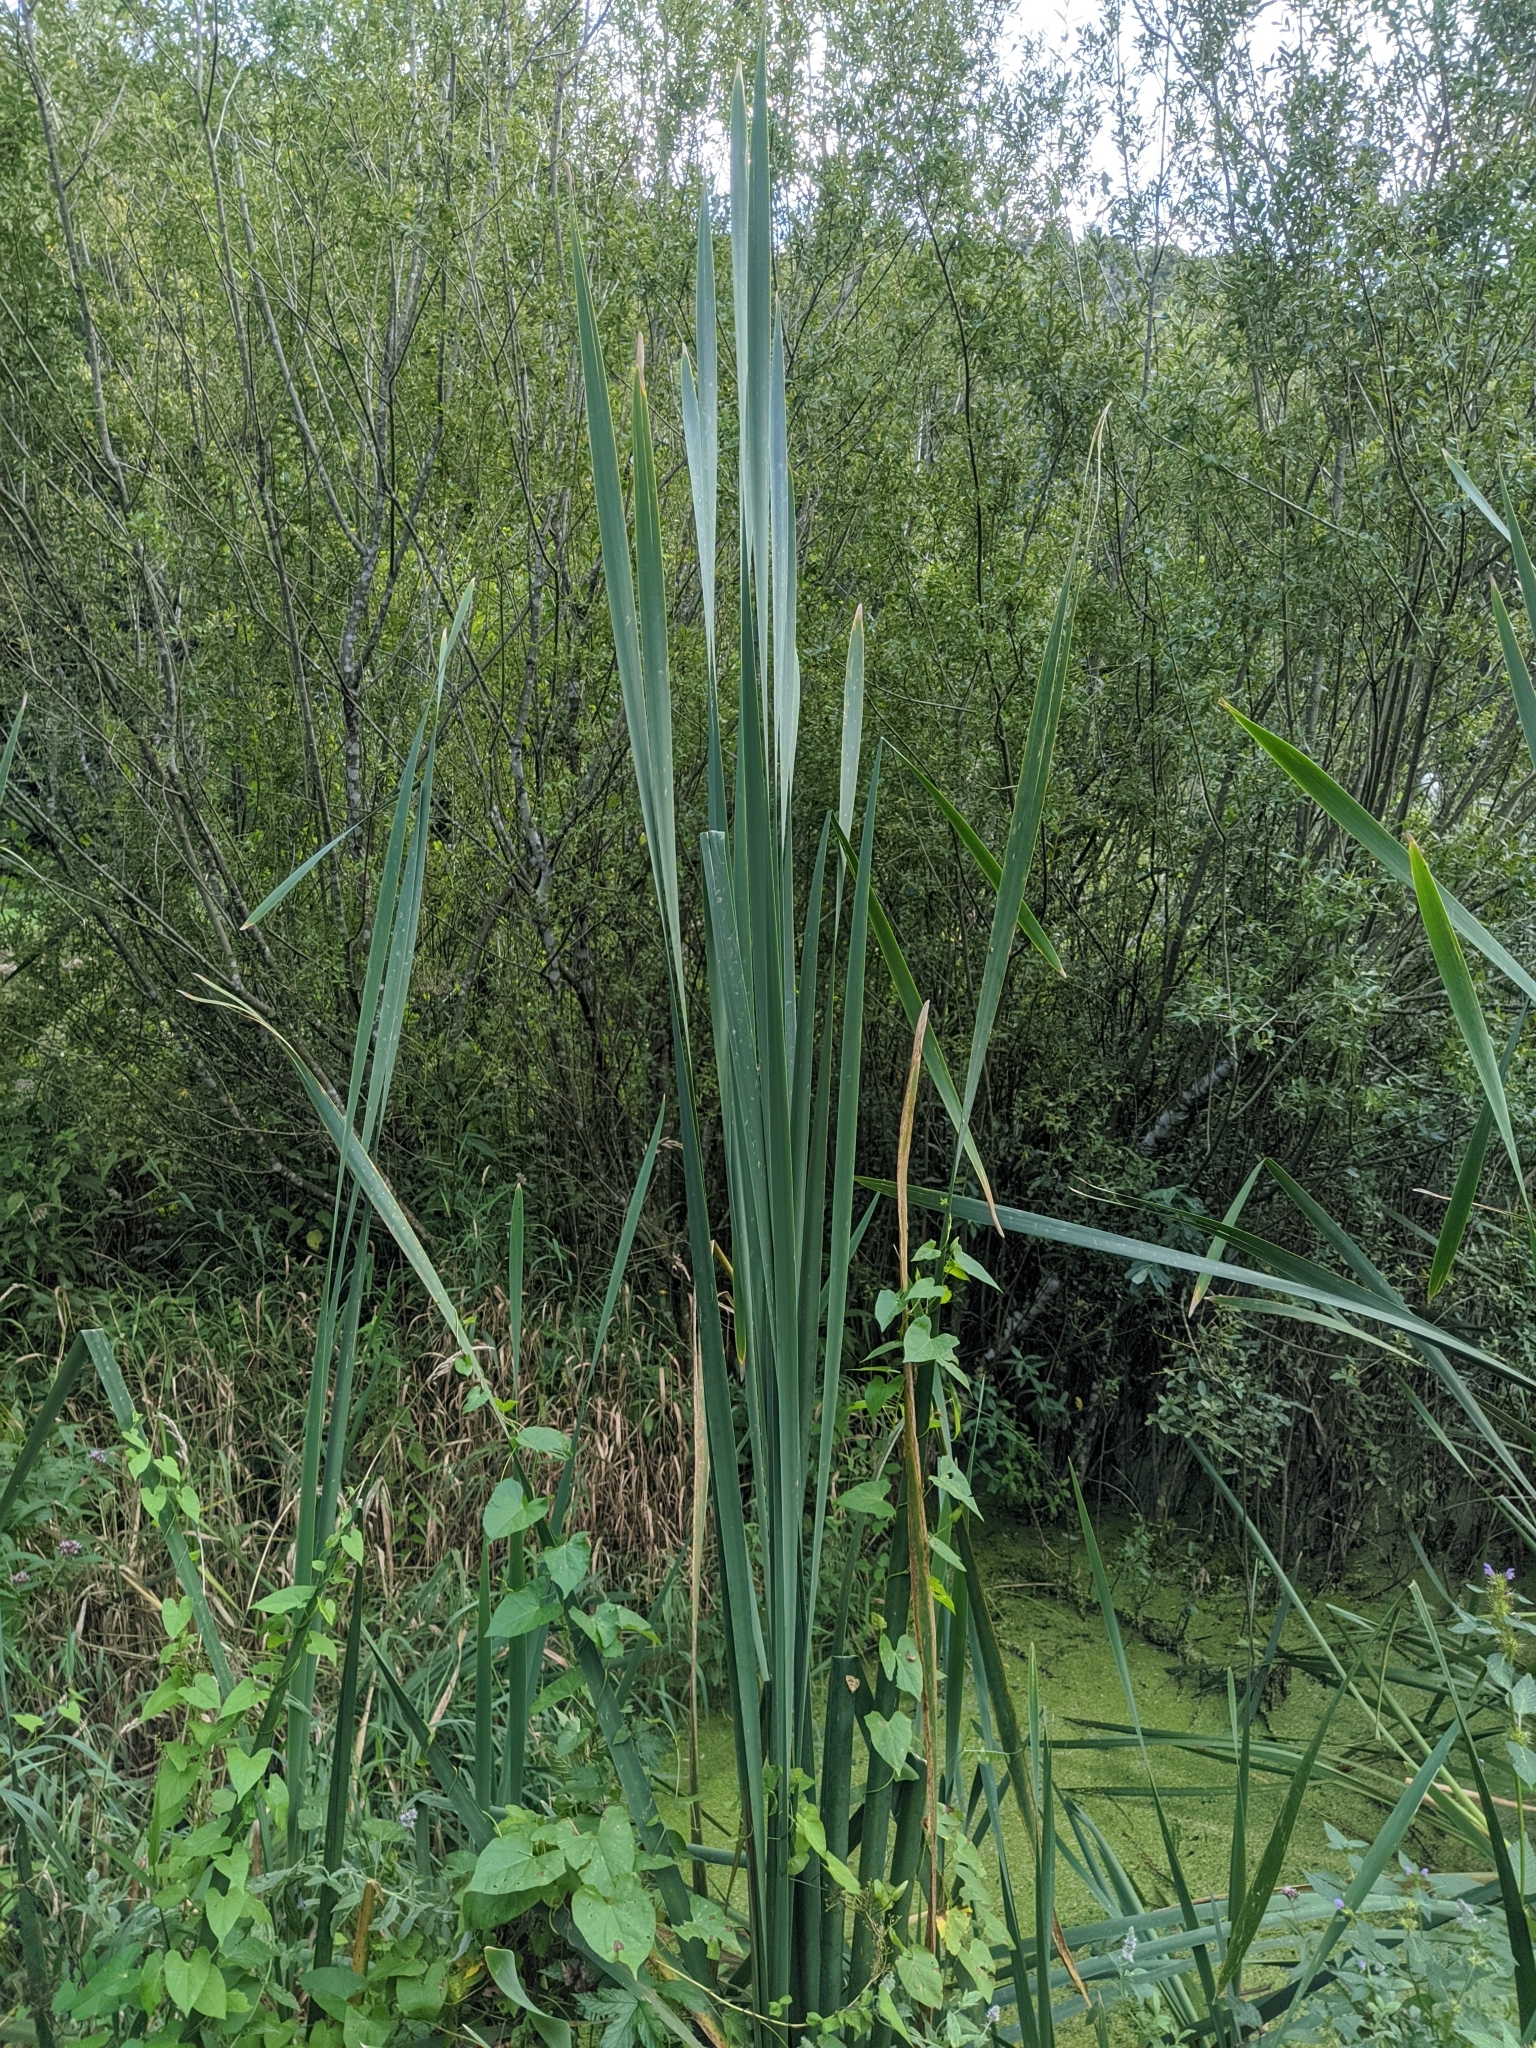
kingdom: Plantae
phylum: Tracheophyta
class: Liliopsida
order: Poales
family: Typhaceae
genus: Typha
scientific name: Typha latifolia
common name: Broadleaf cattail
